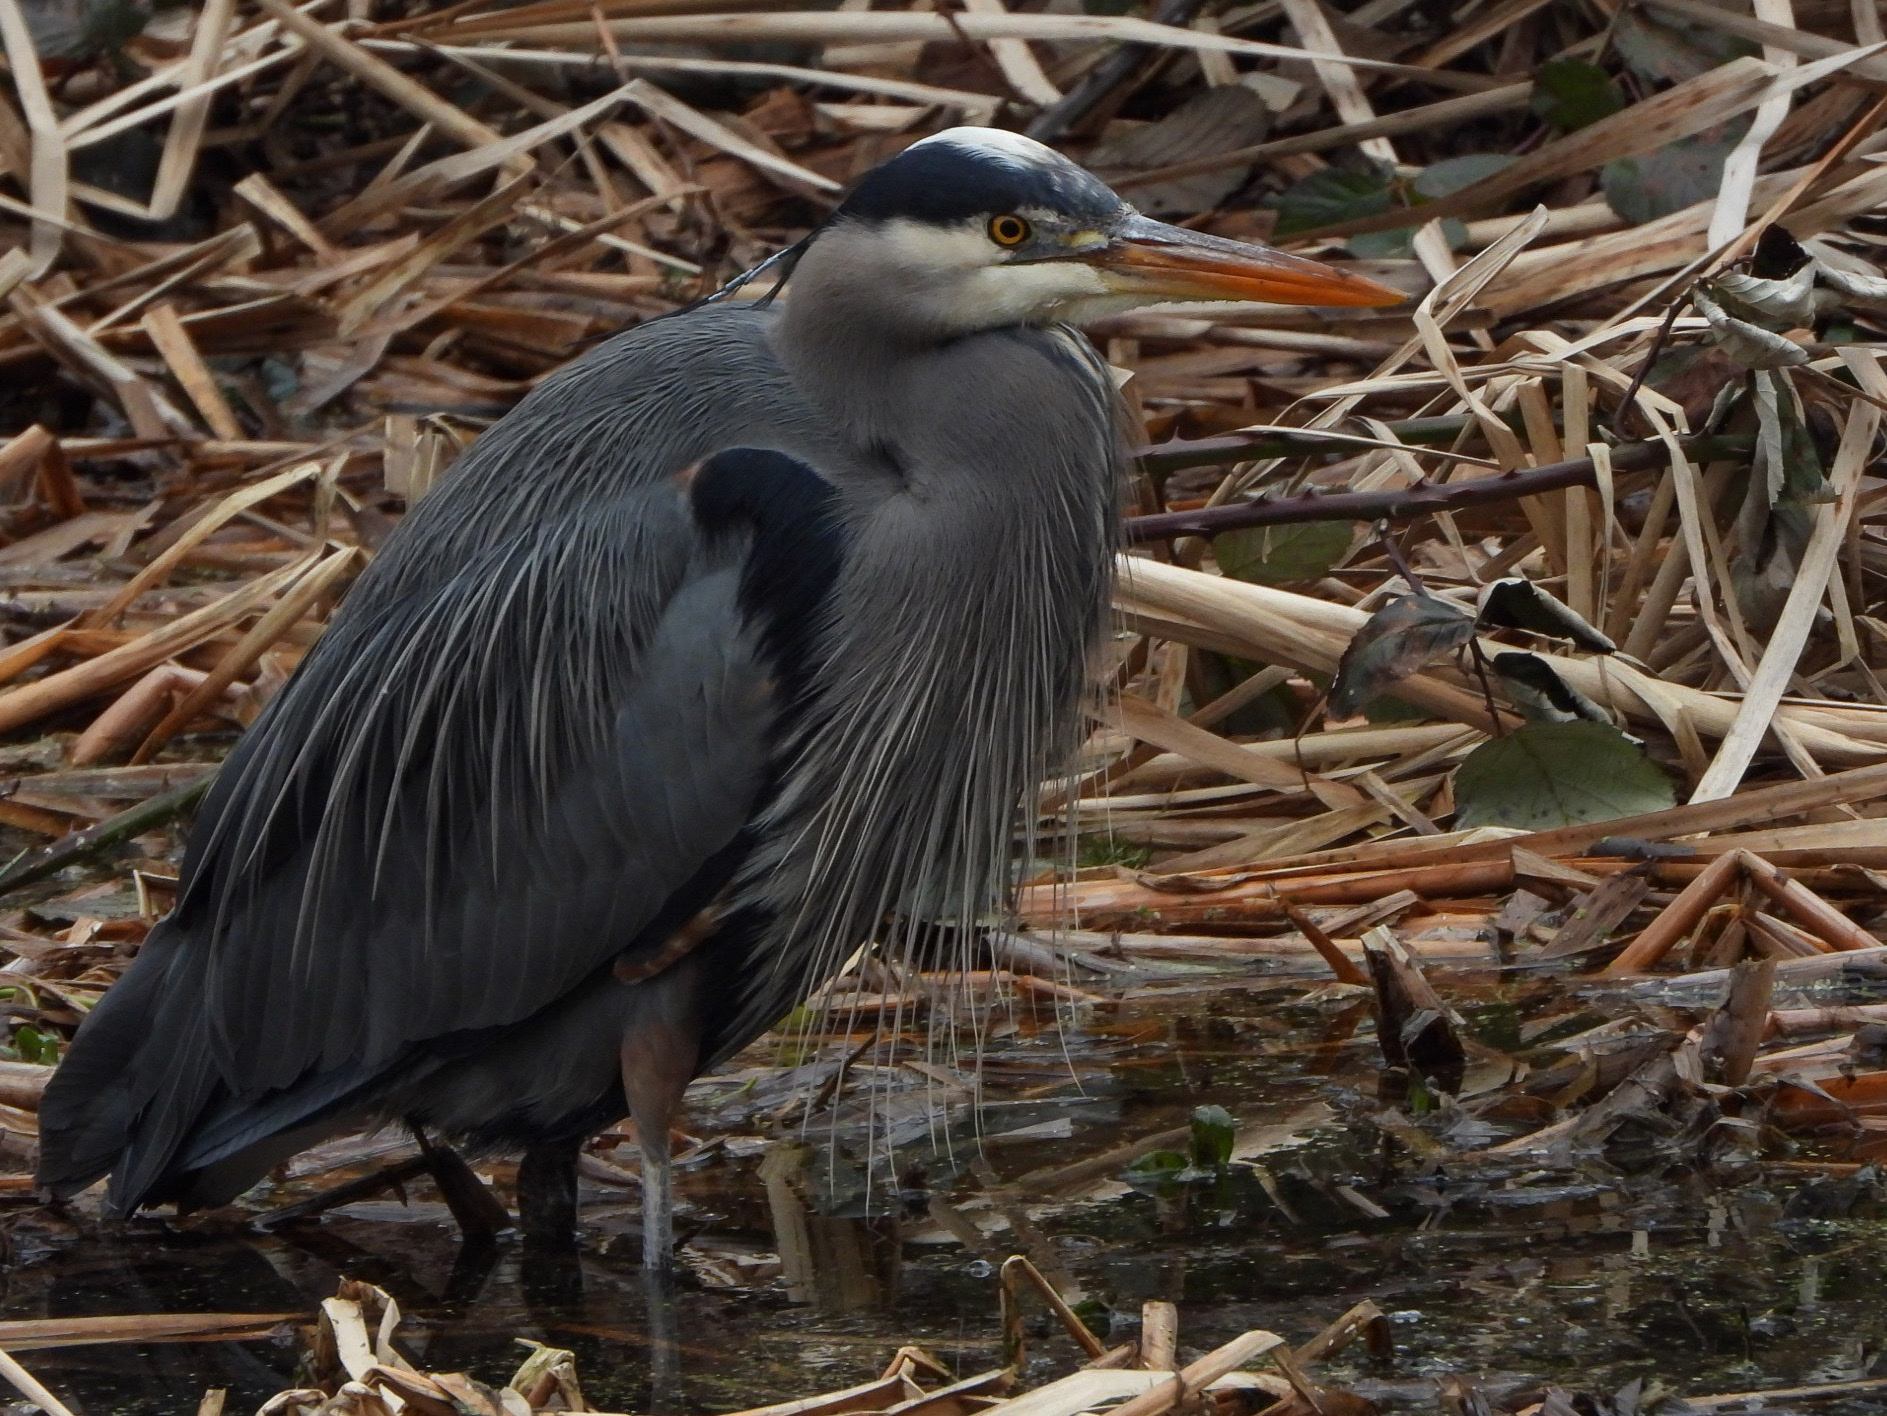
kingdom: Animalia
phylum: Chordata
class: Aves
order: Pelecaniformes
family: Ardeidae
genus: Ardea
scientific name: Ardea herodias
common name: Great blue heron
